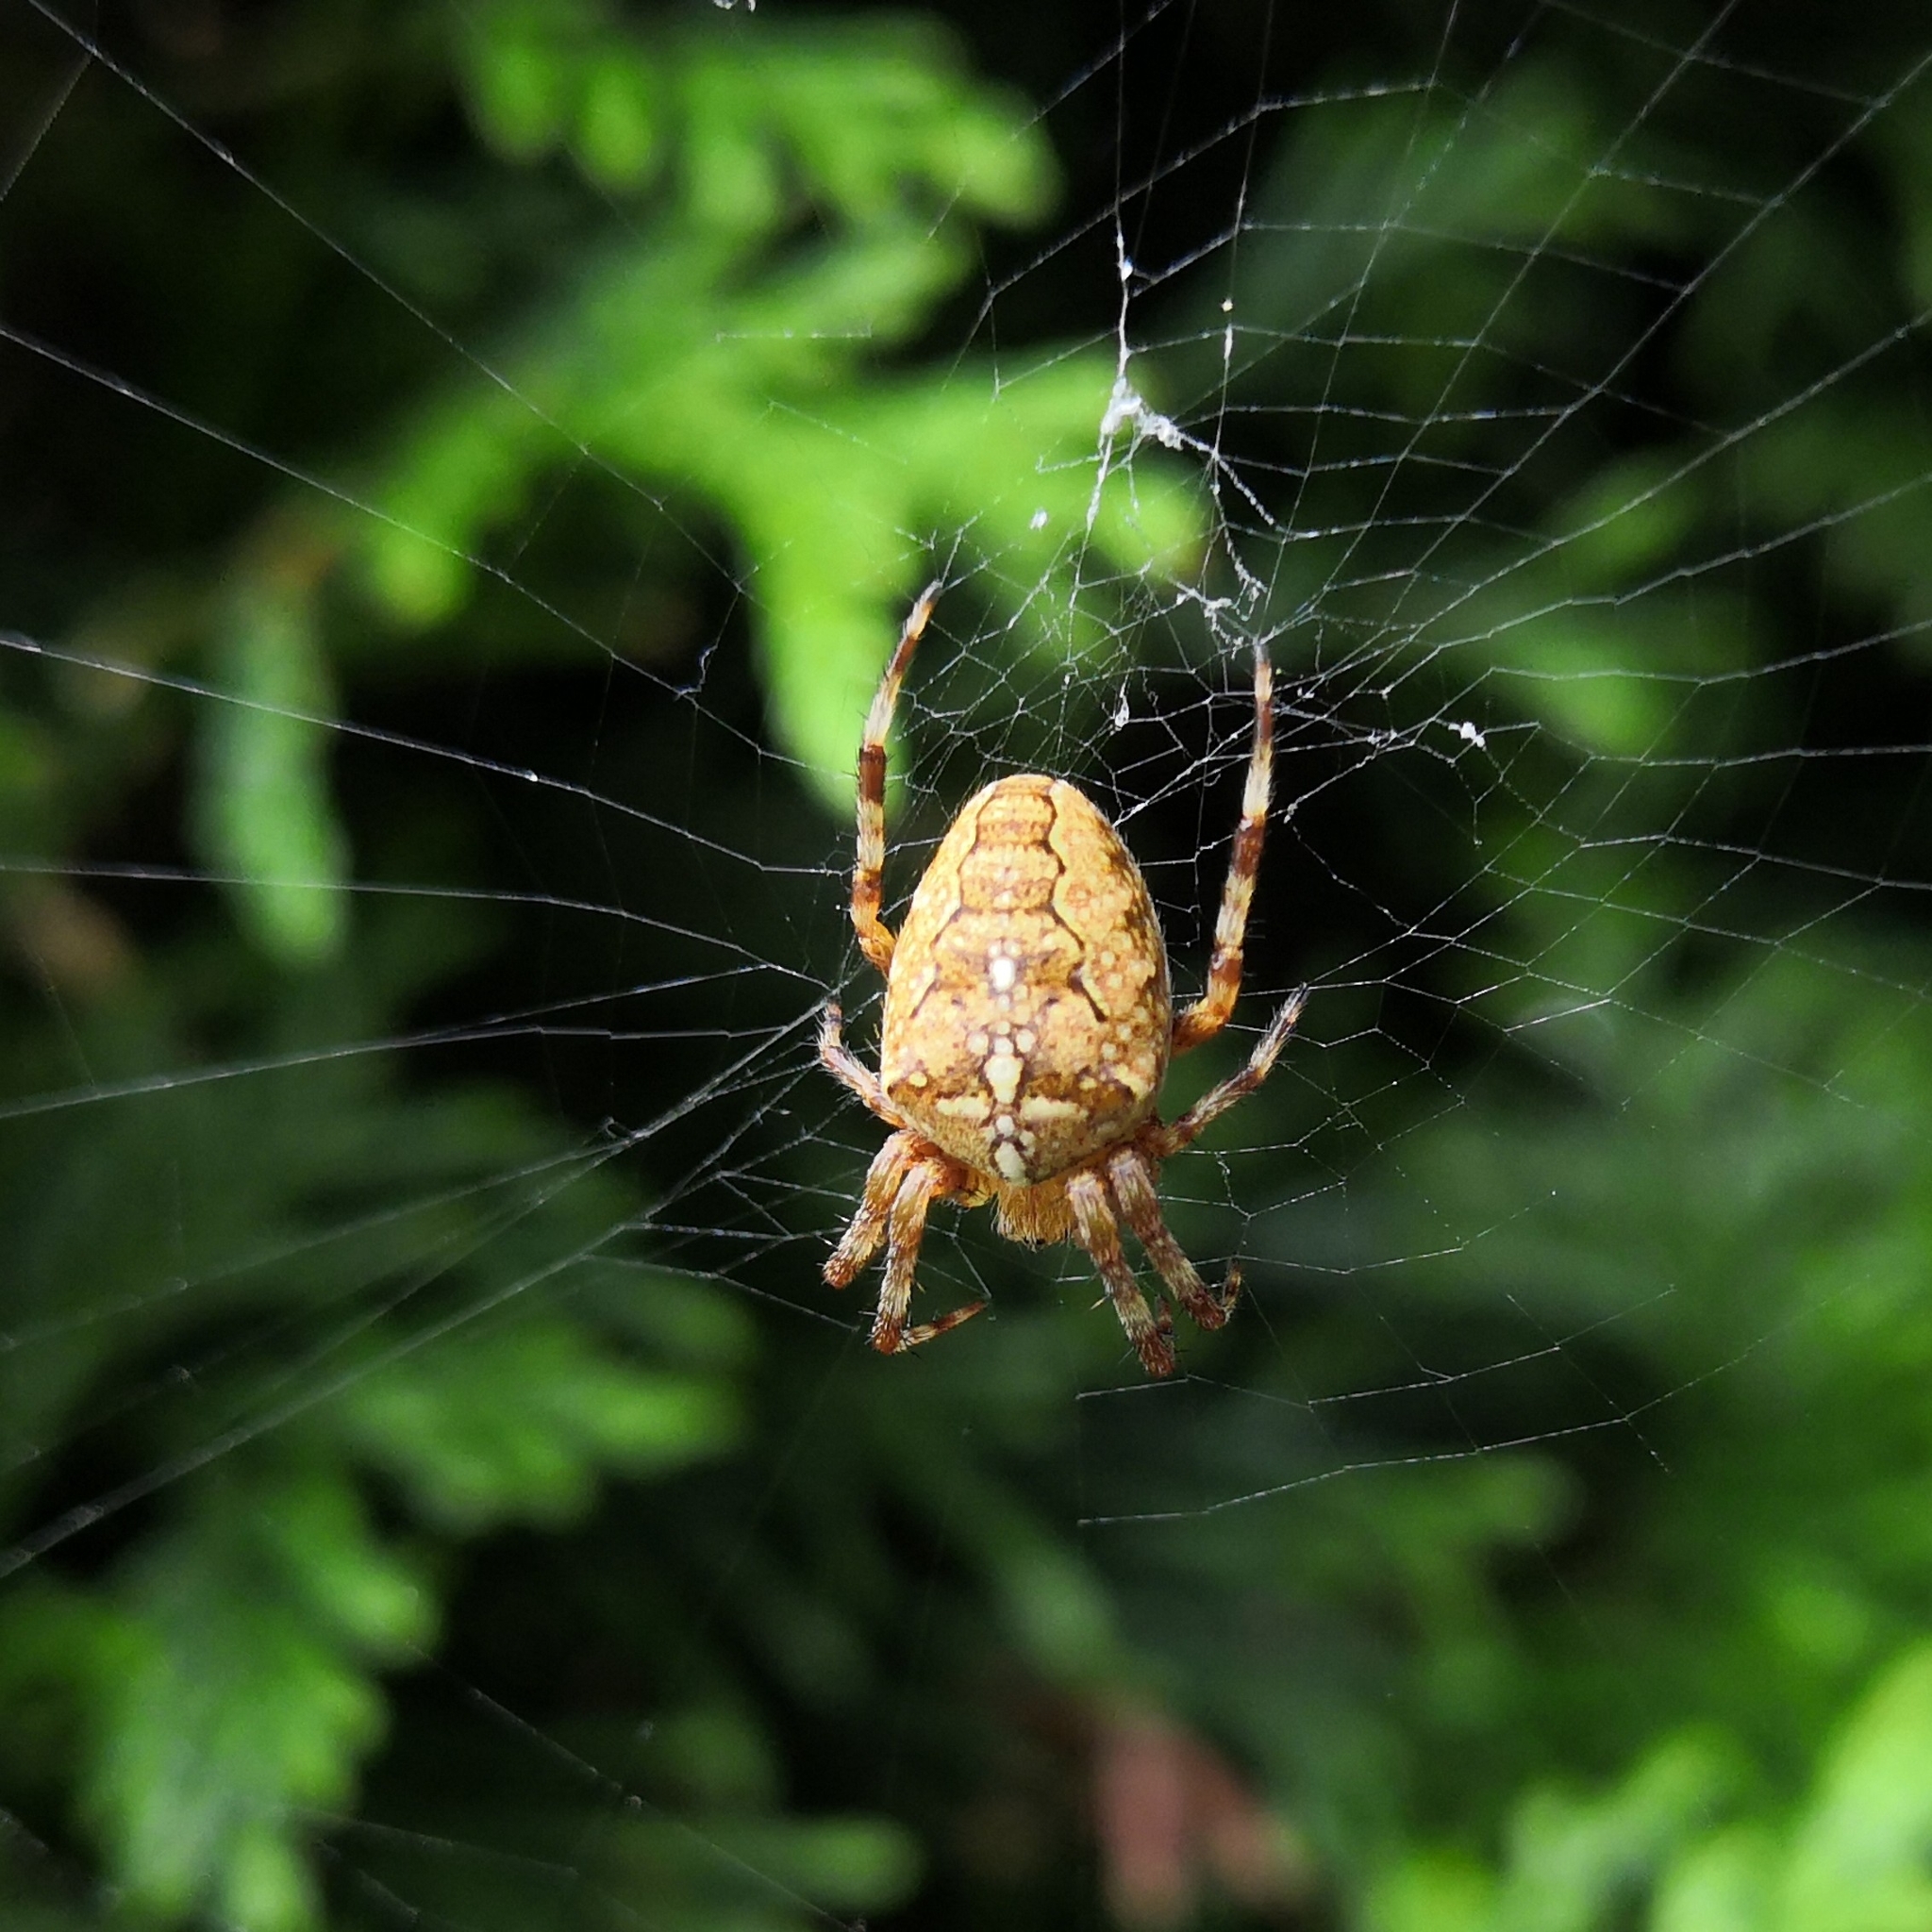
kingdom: Animalia
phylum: Arthropoda
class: Arachnida
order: Araneae
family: Araneidae
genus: Araneus
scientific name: Araneus diadematus
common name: Cross orbweaver
